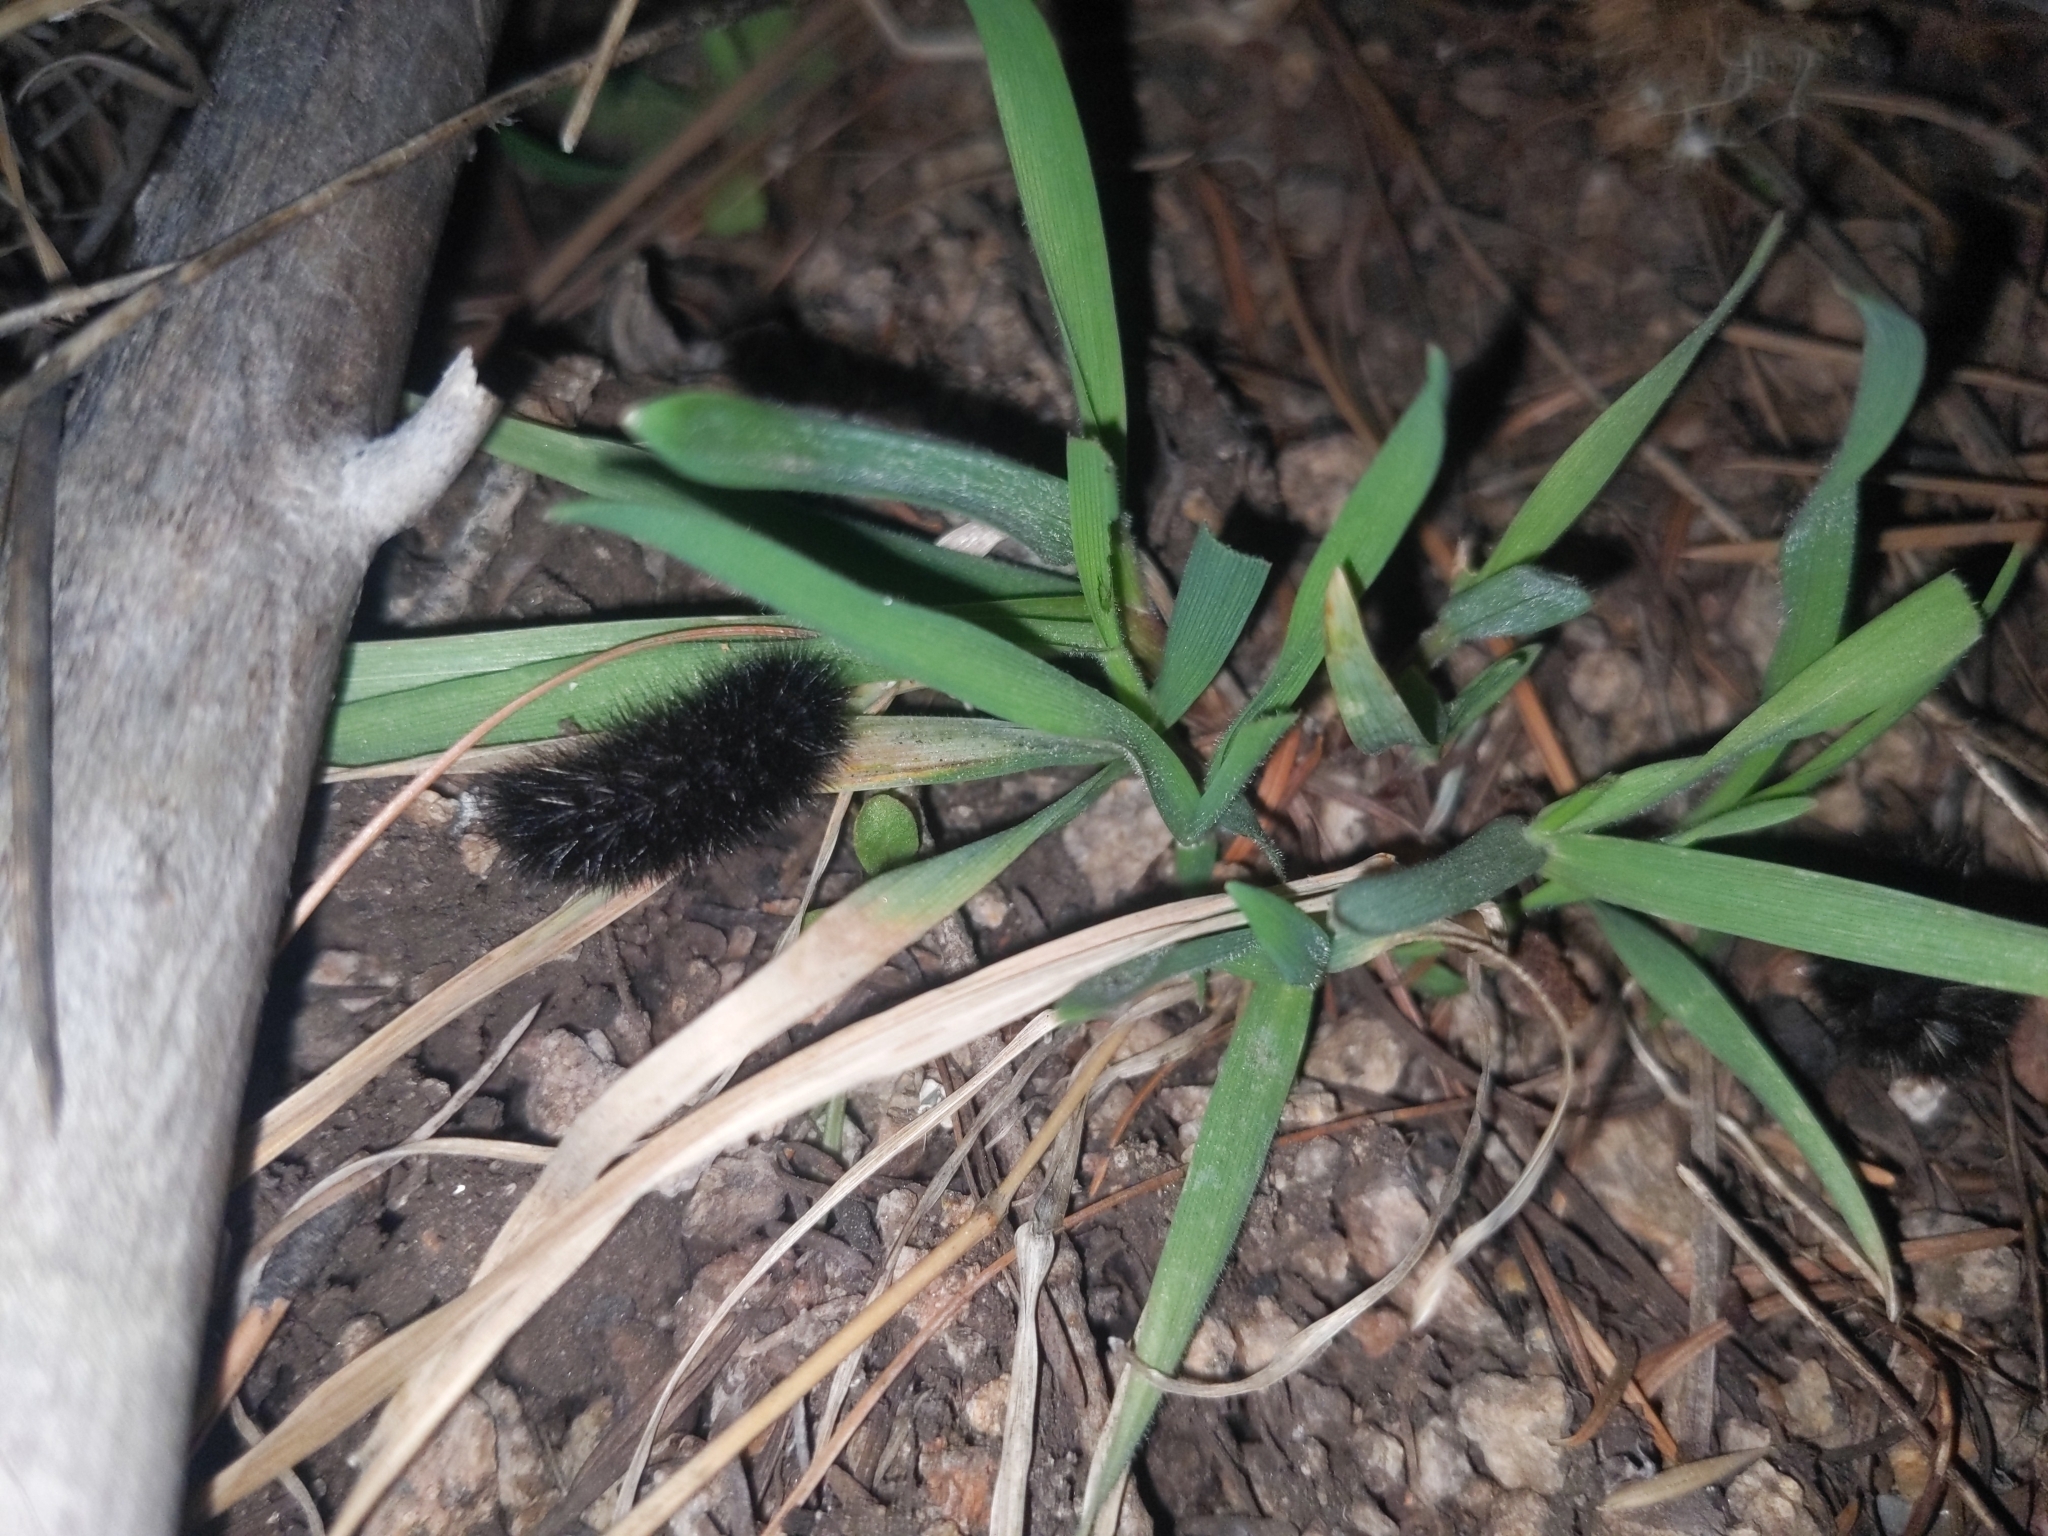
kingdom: Animalia
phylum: Arthropoda
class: Insecta
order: Lepidoptera
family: Erebidae
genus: Hypercompe
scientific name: Hypercompe permaculata
